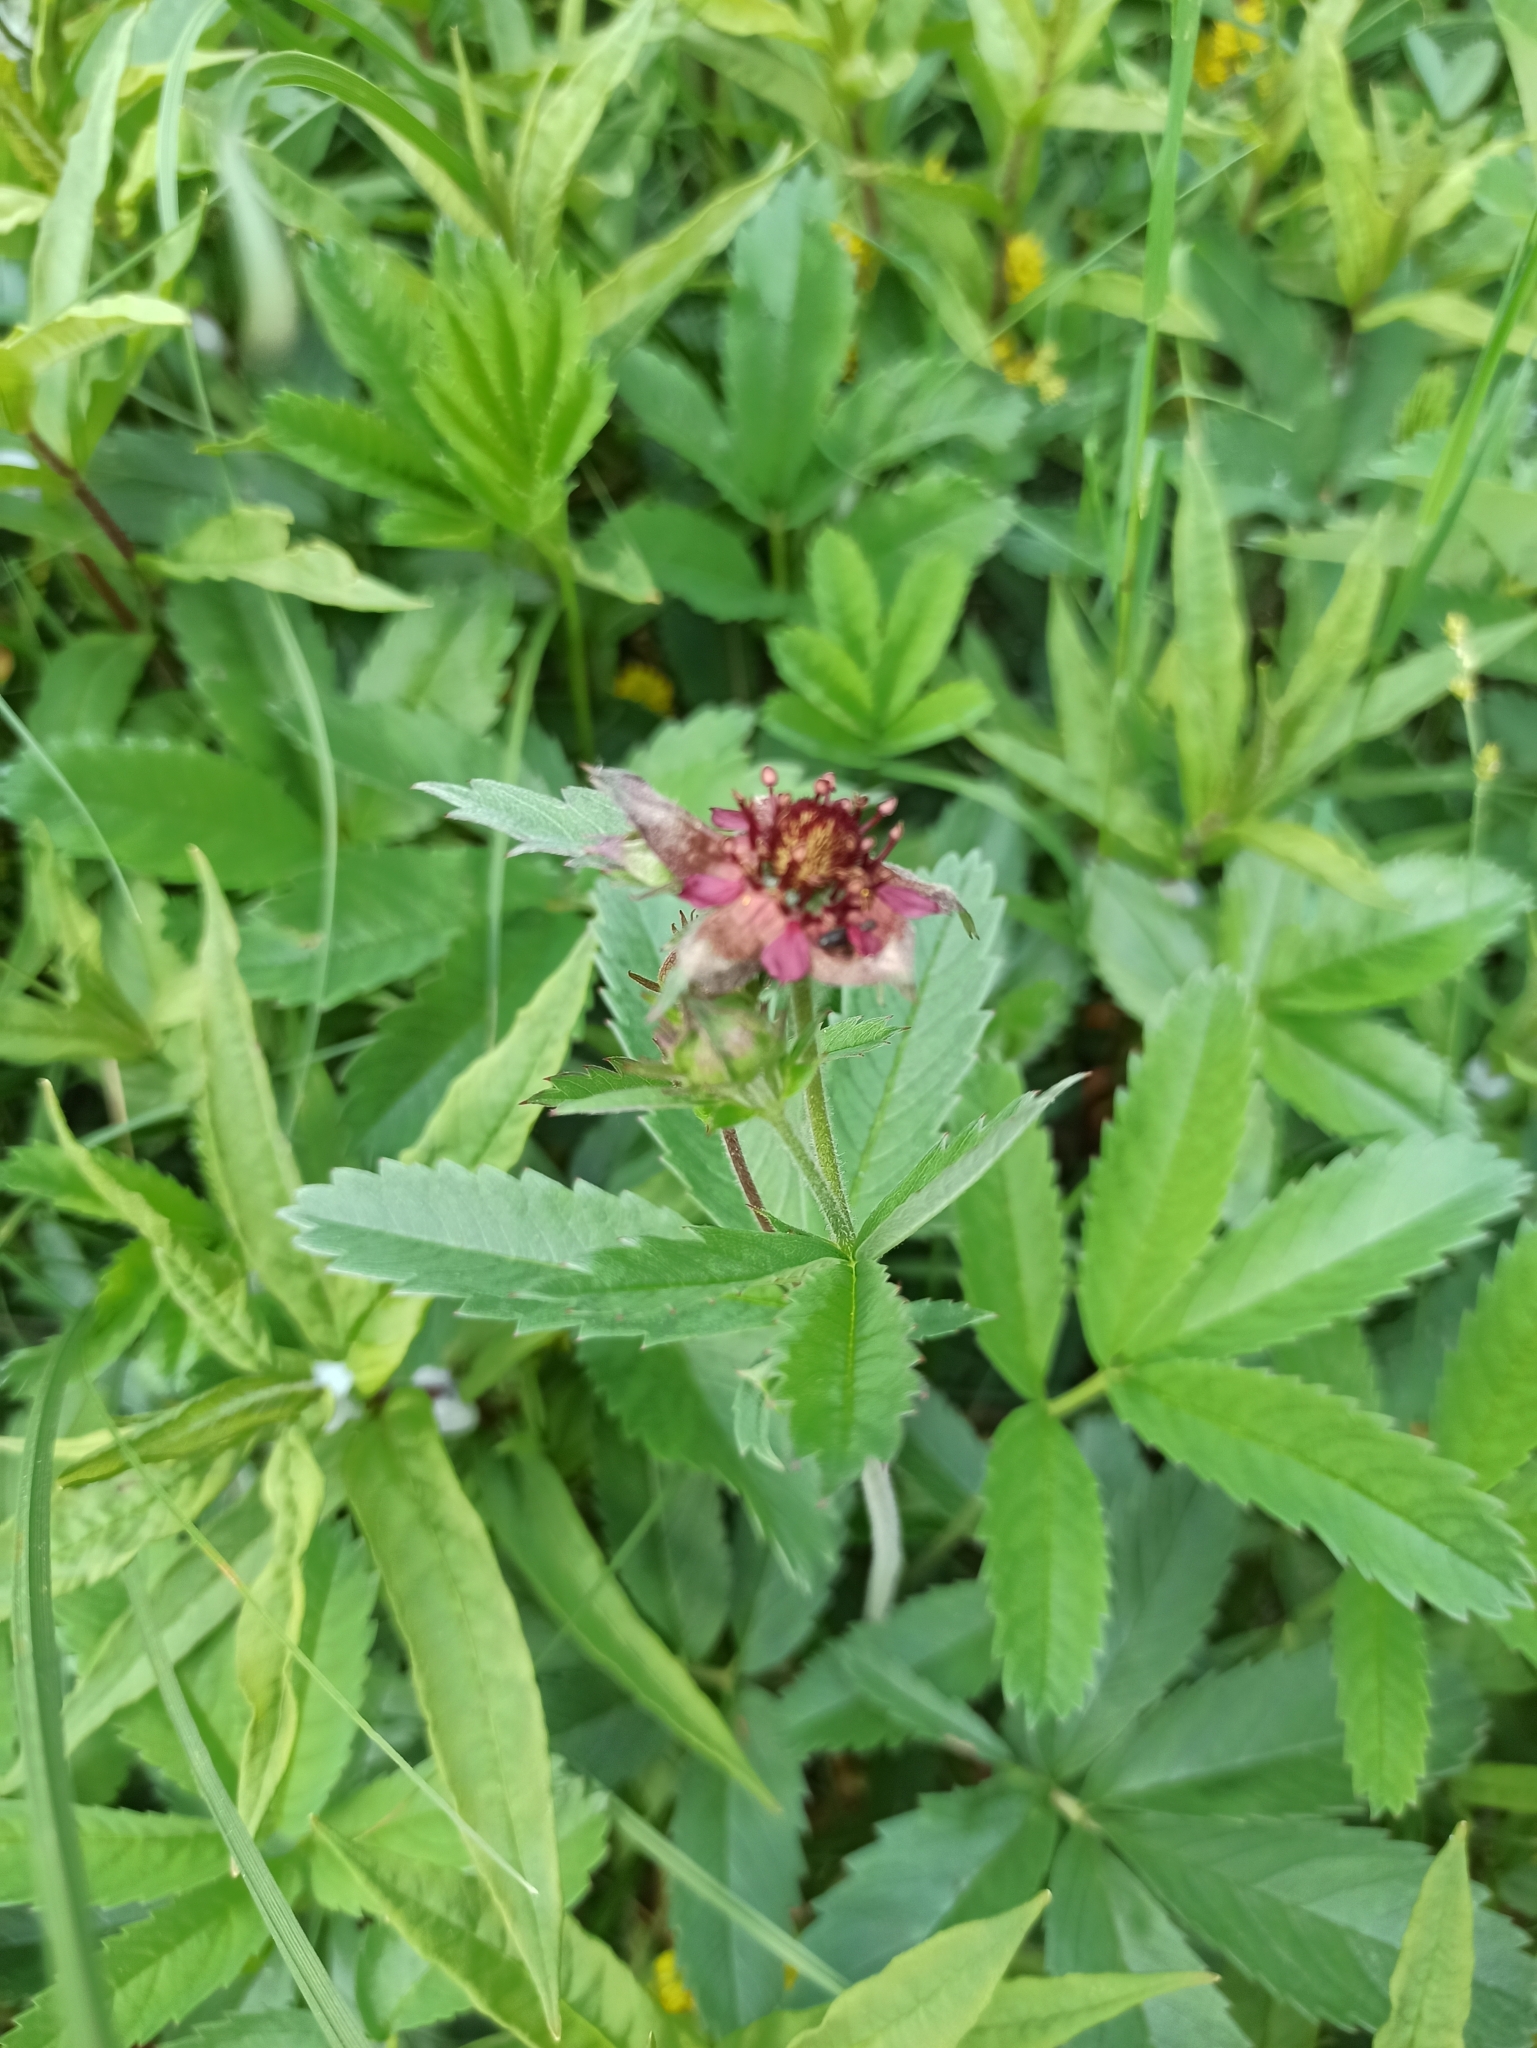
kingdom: Plantae
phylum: Tracheophyta
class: Magnoliopsida
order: Rosales
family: Rosaceae
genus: Comarum
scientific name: Comarum palustre
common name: Marsh cinquefoil
